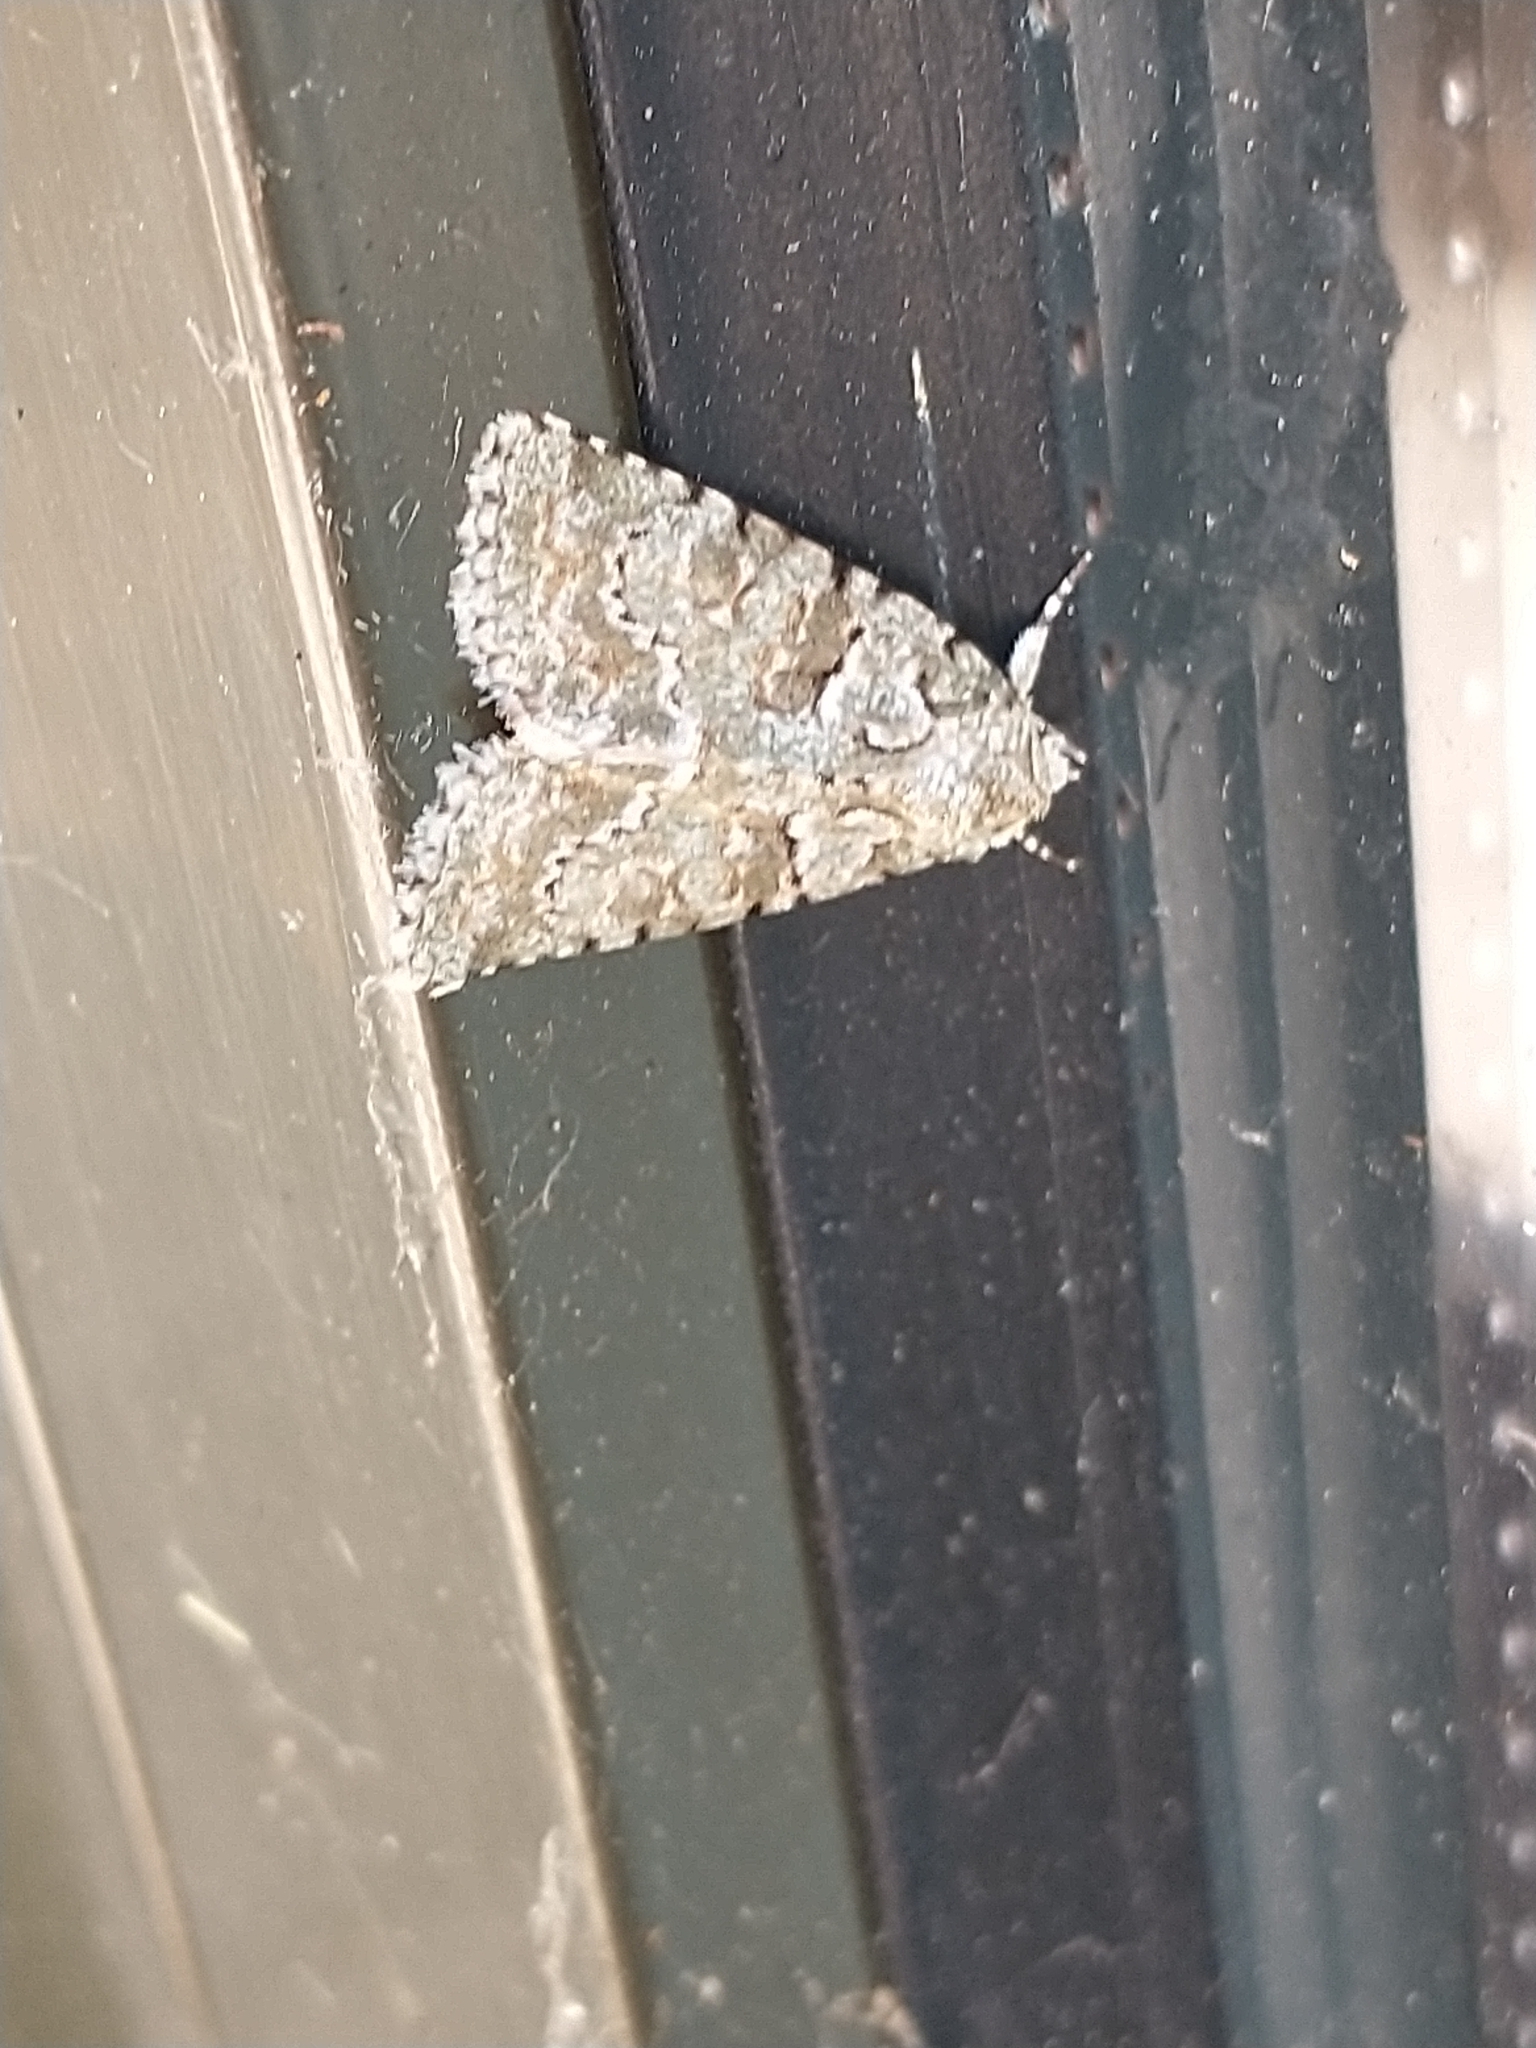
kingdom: Animalia
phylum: Arthropoda
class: Insecta
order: Lepidoptera
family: Noctuidae
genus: Nyctobrya
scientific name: Nyctobrya muralis
